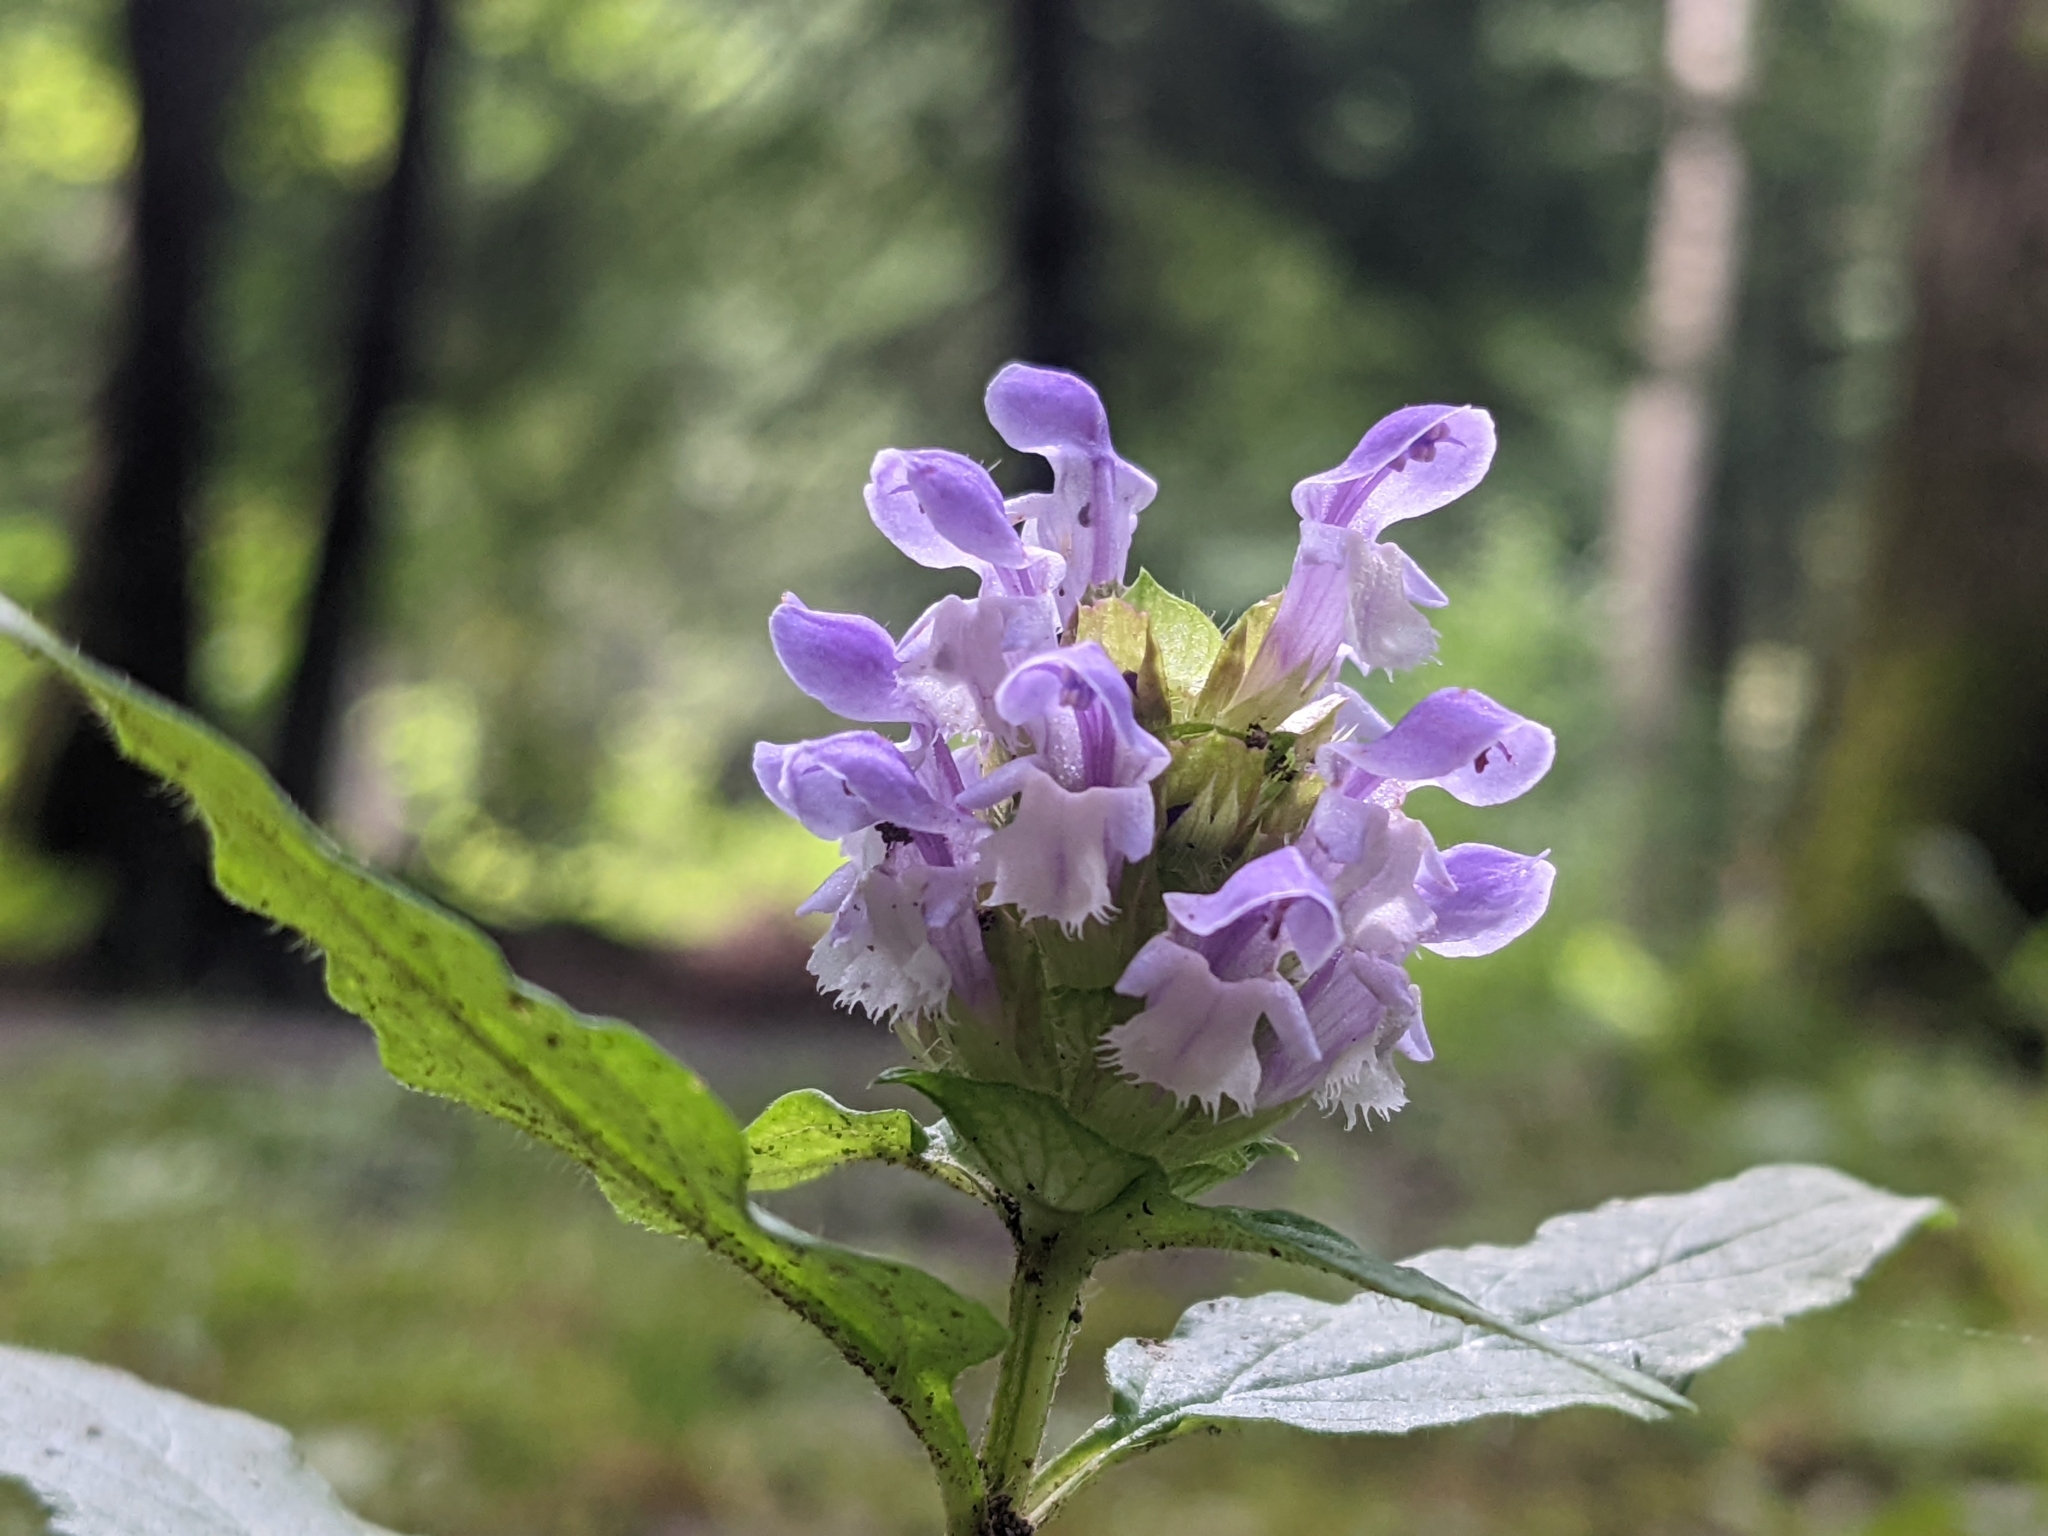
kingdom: Plantae
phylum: Tracheophyta
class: Magnoliopsida
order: Lamiales
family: Lamiaceae
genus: Prunella
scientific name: Prunella vulgaris
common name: Heal-all
